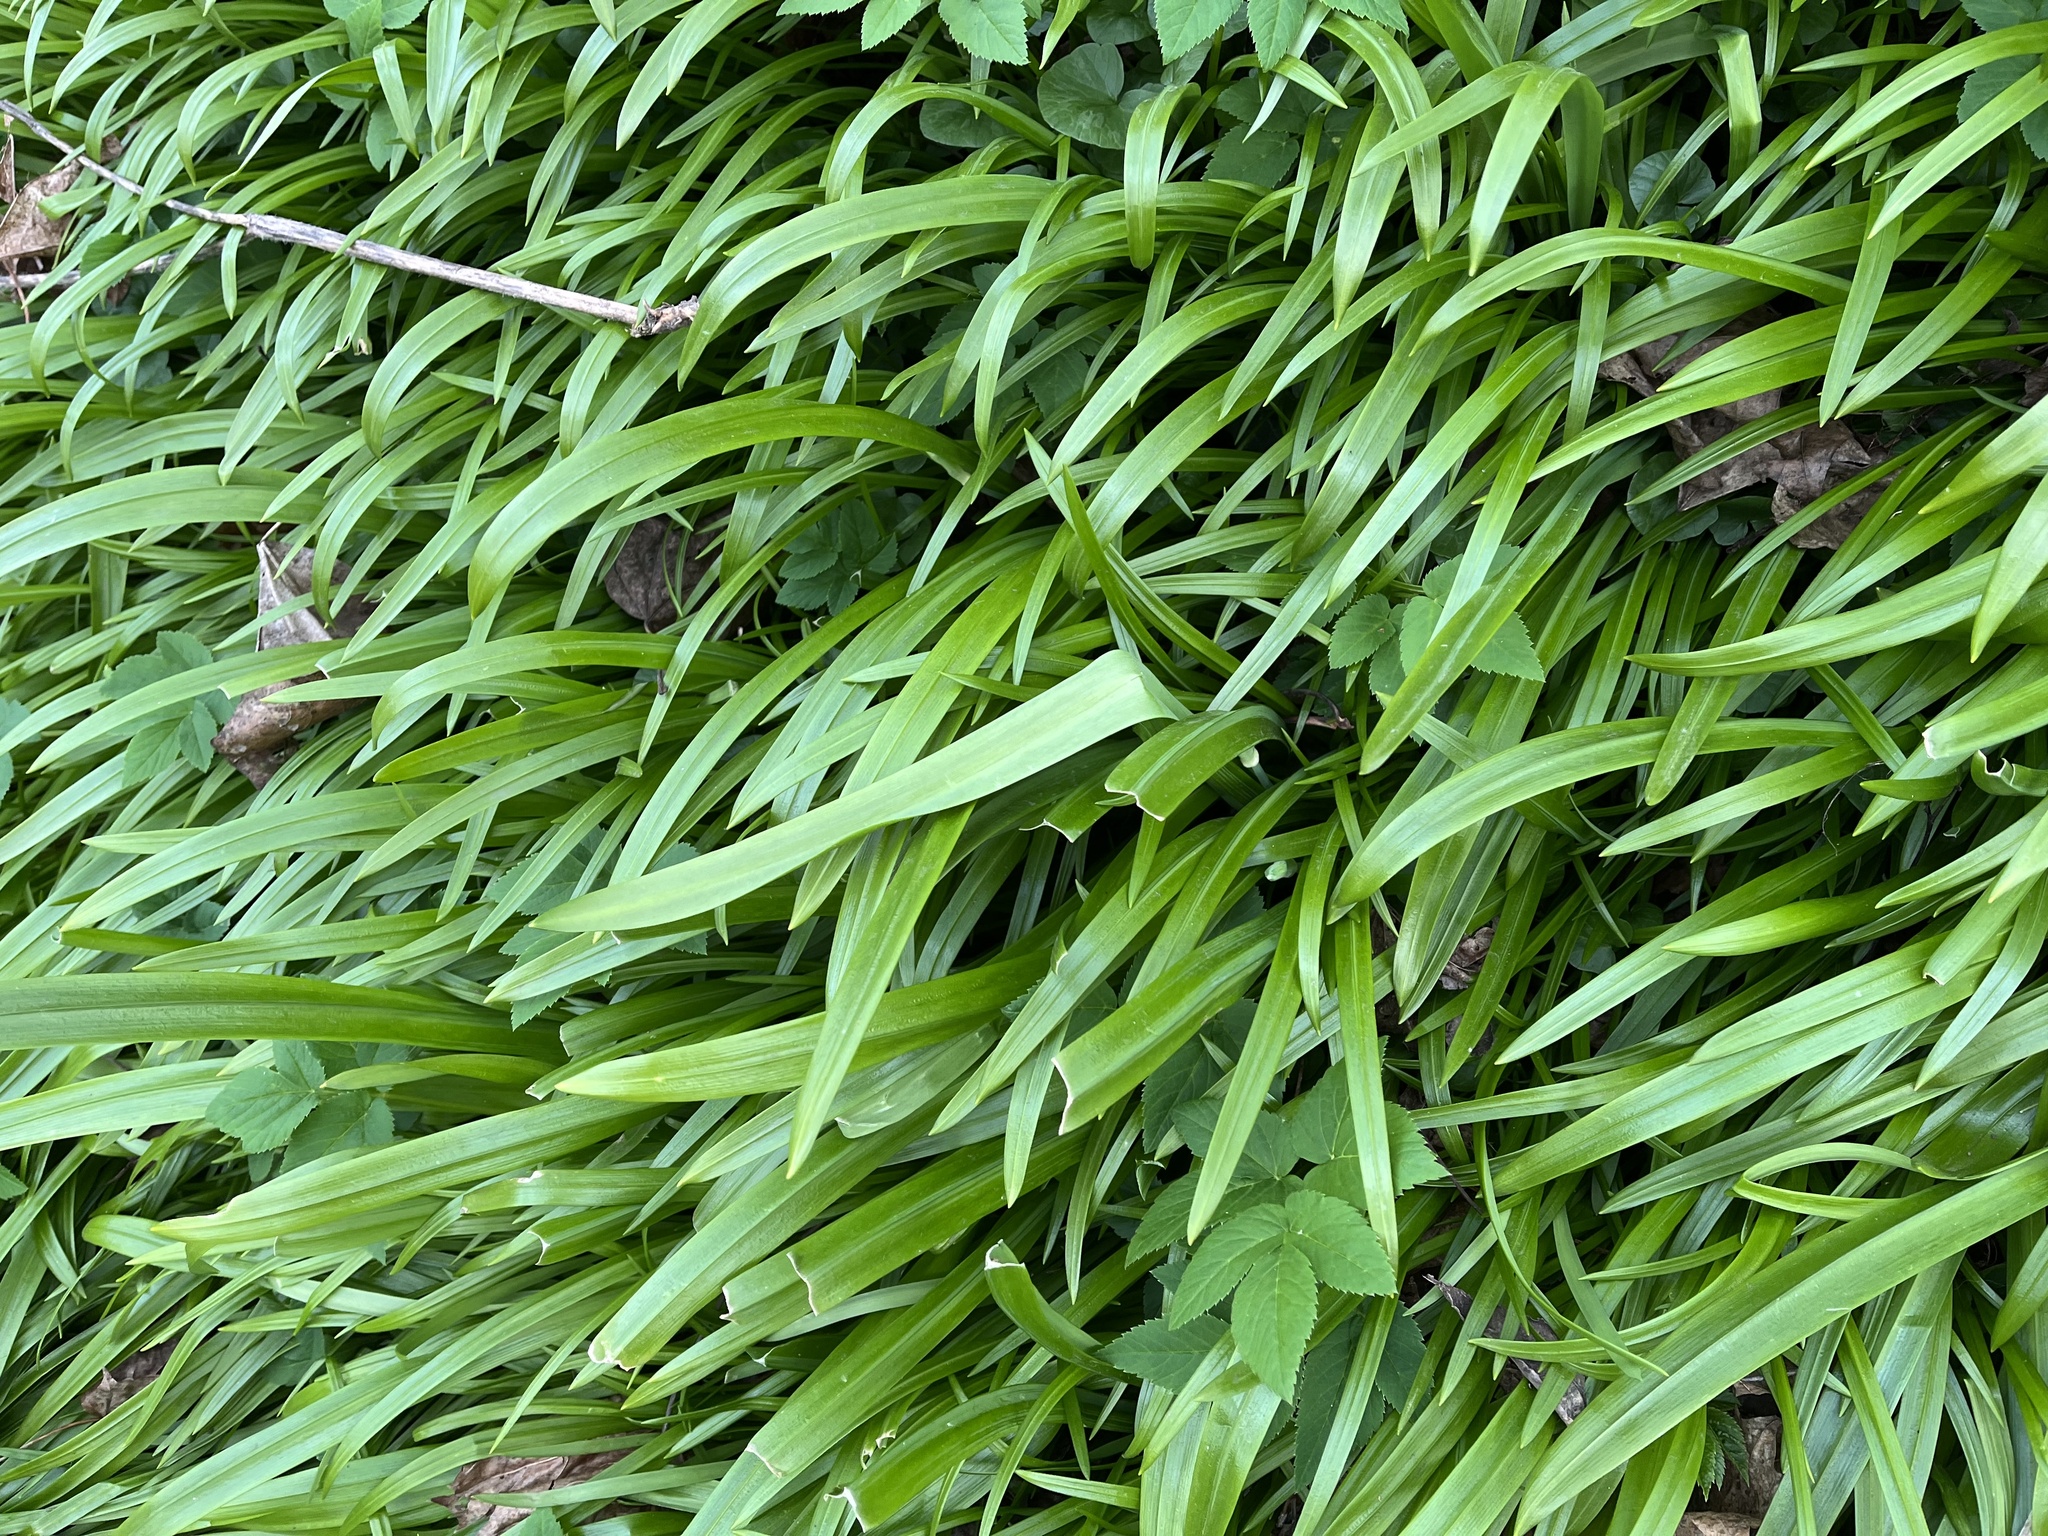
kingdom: Plantae
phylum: Tracheophyta
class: Liliopsida
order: Asparagales
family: Amaryllidaceae
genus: Allium
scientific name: Allium paradoxum
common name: Few-flowered garlic
